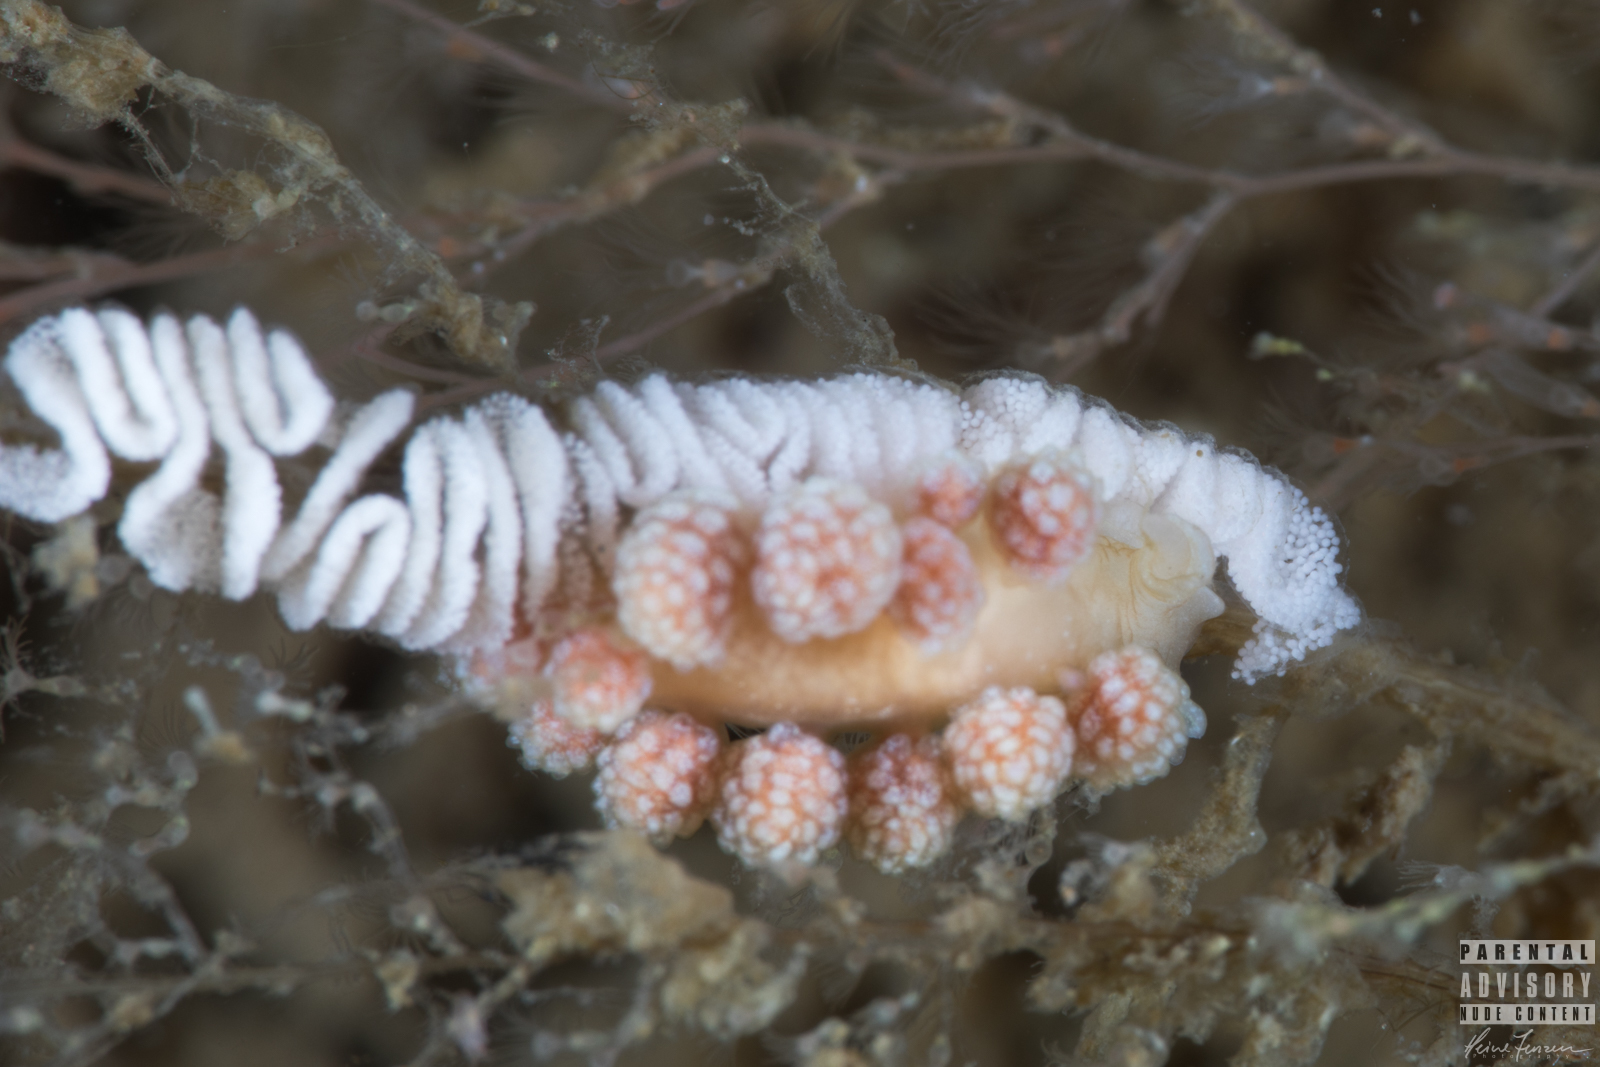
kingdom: Animalia
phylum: Mollusca
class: Gastropoda
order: Nudibranchia
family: Dotidae
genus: Doto
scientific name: Doto fragilis
